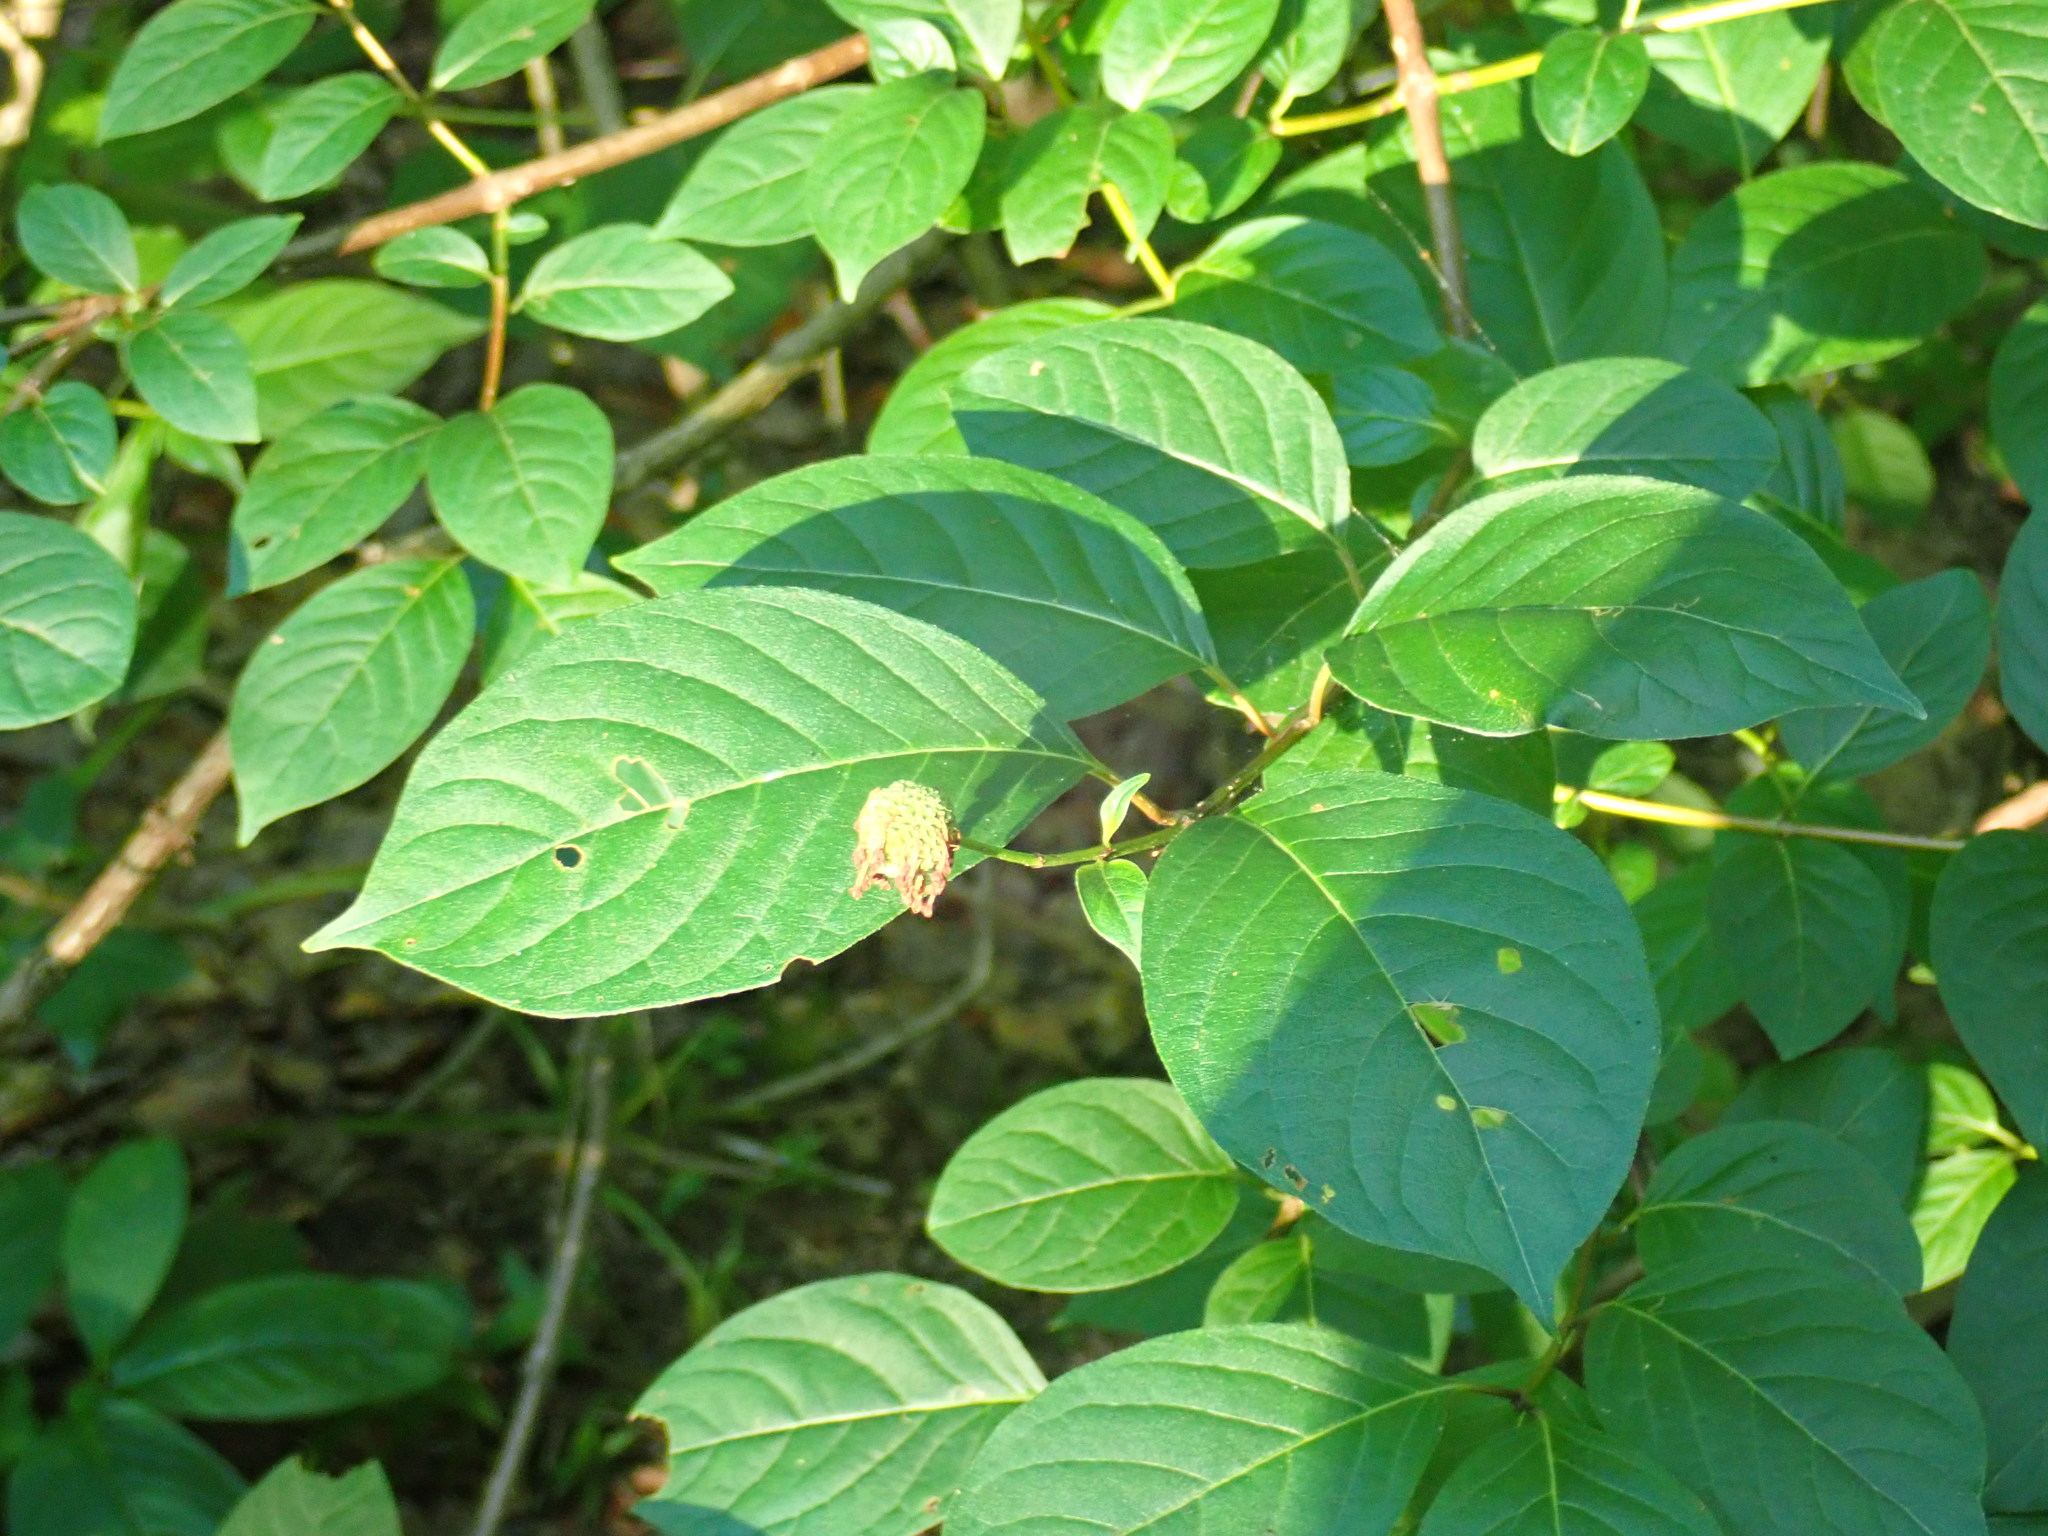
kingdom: Plantae
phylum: Tracheophyta
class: Magnoliopsida
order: Gentianales
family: Rubiaceae
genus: Cephalanthus
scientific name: Cephalanthus occidentalis
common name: Button-willow
